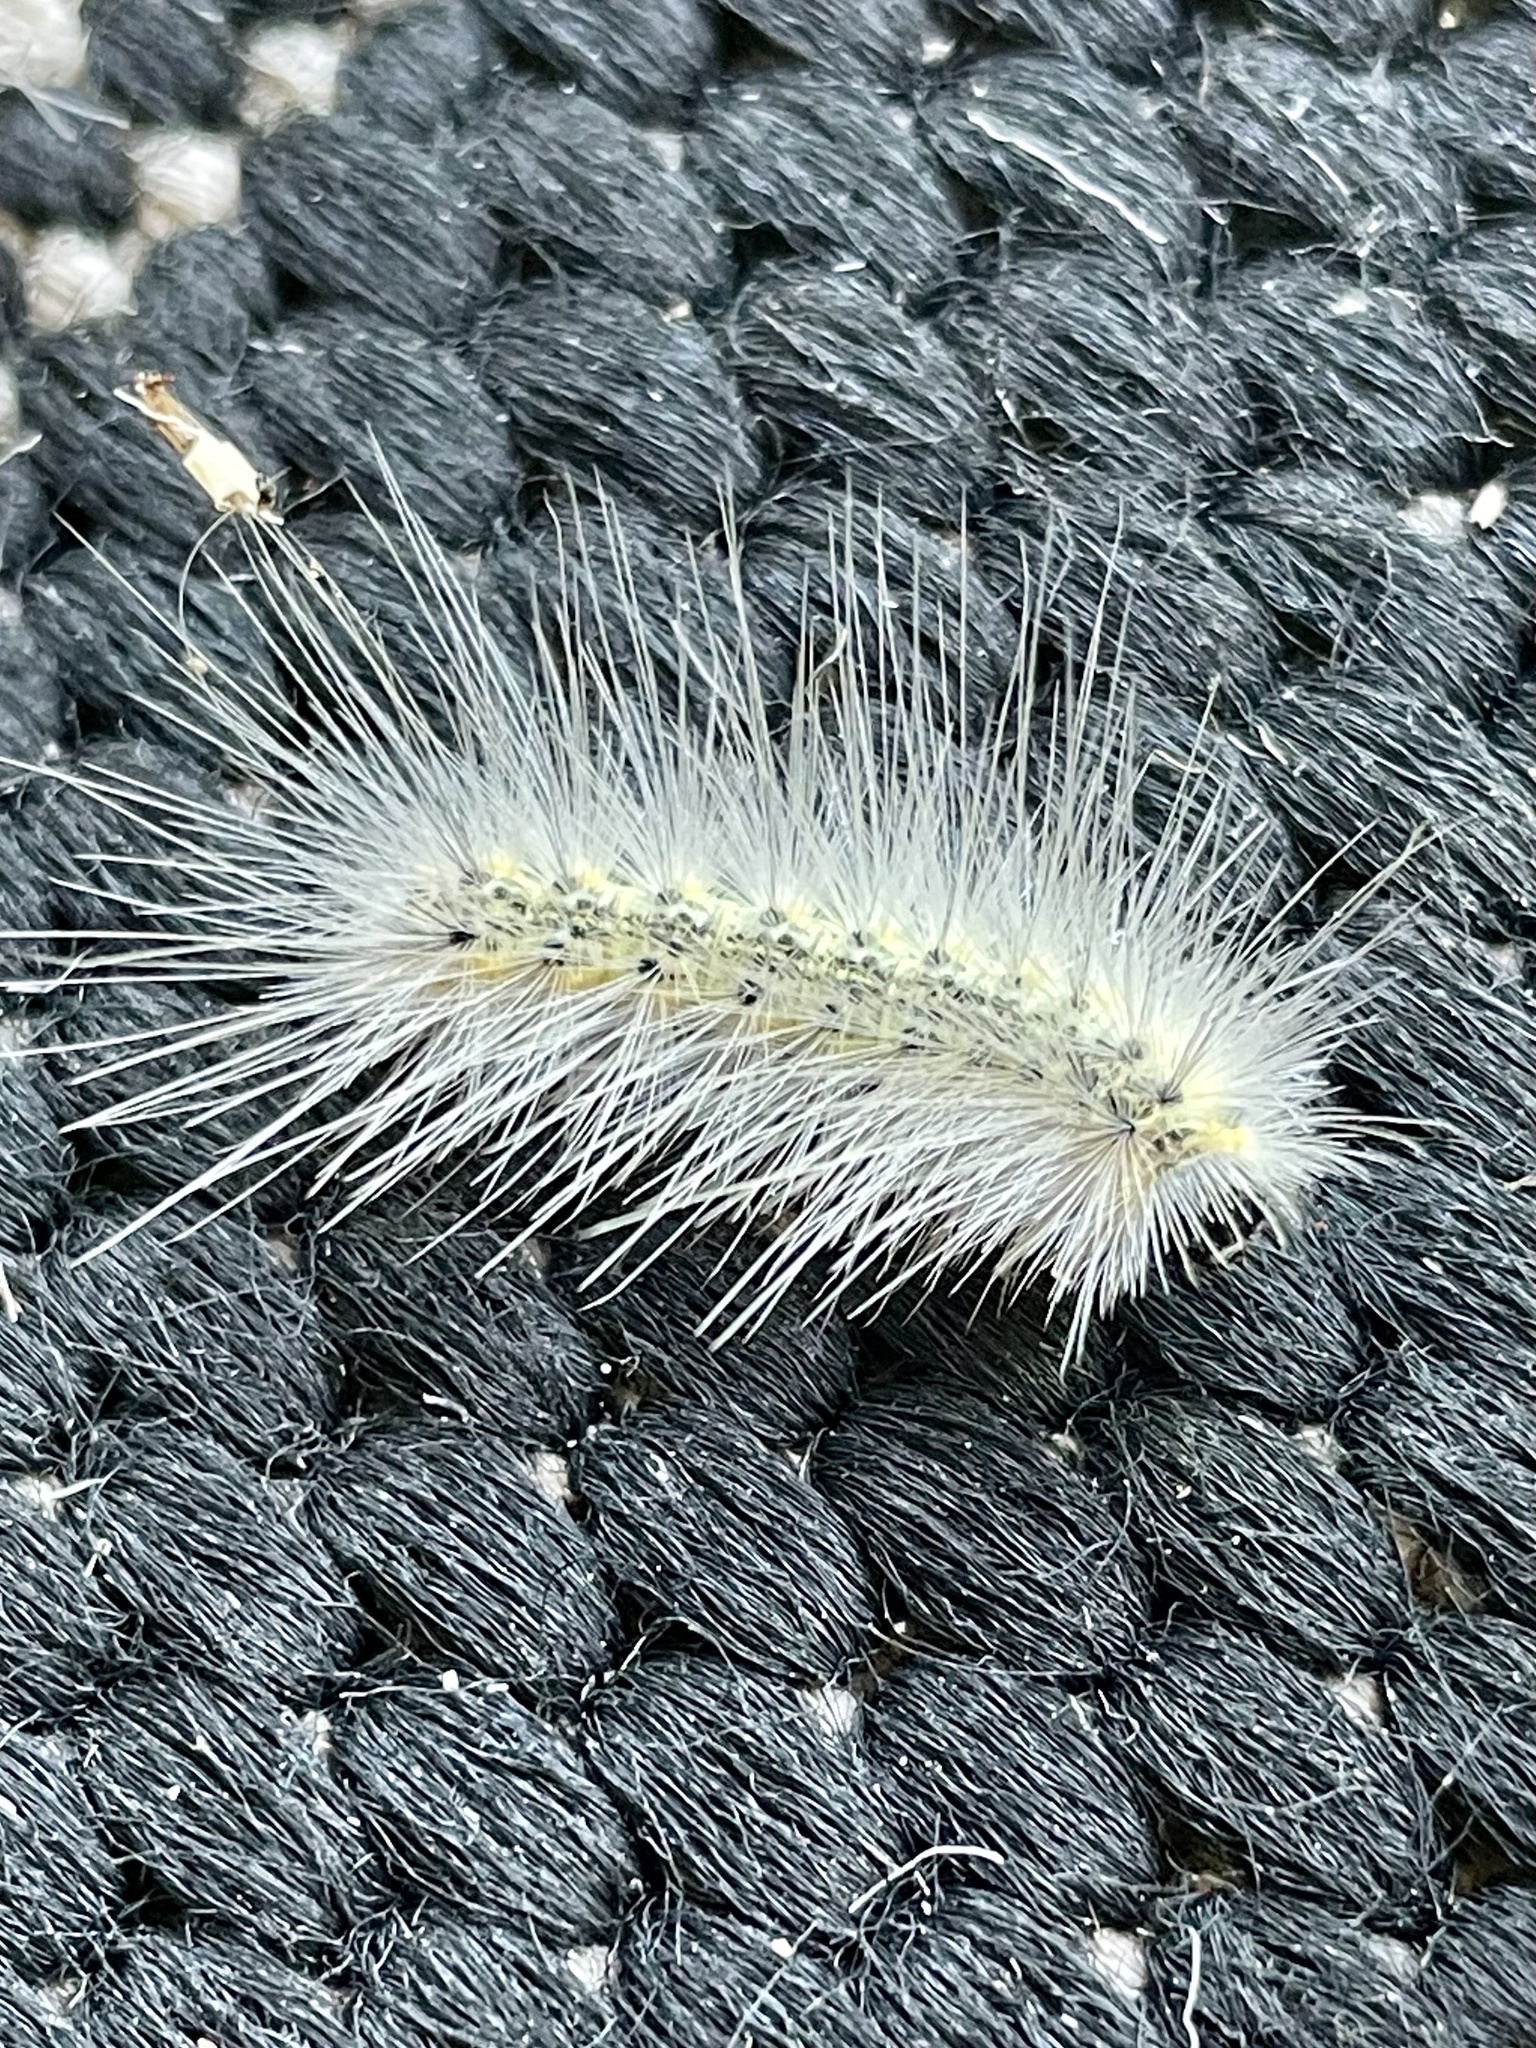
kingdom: Animalia
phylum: Arthropoda
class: Insecta
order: Lepidoptera
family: Erebidae
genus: Hyphantria
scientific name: Hyphantria cunea
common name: American white moth
